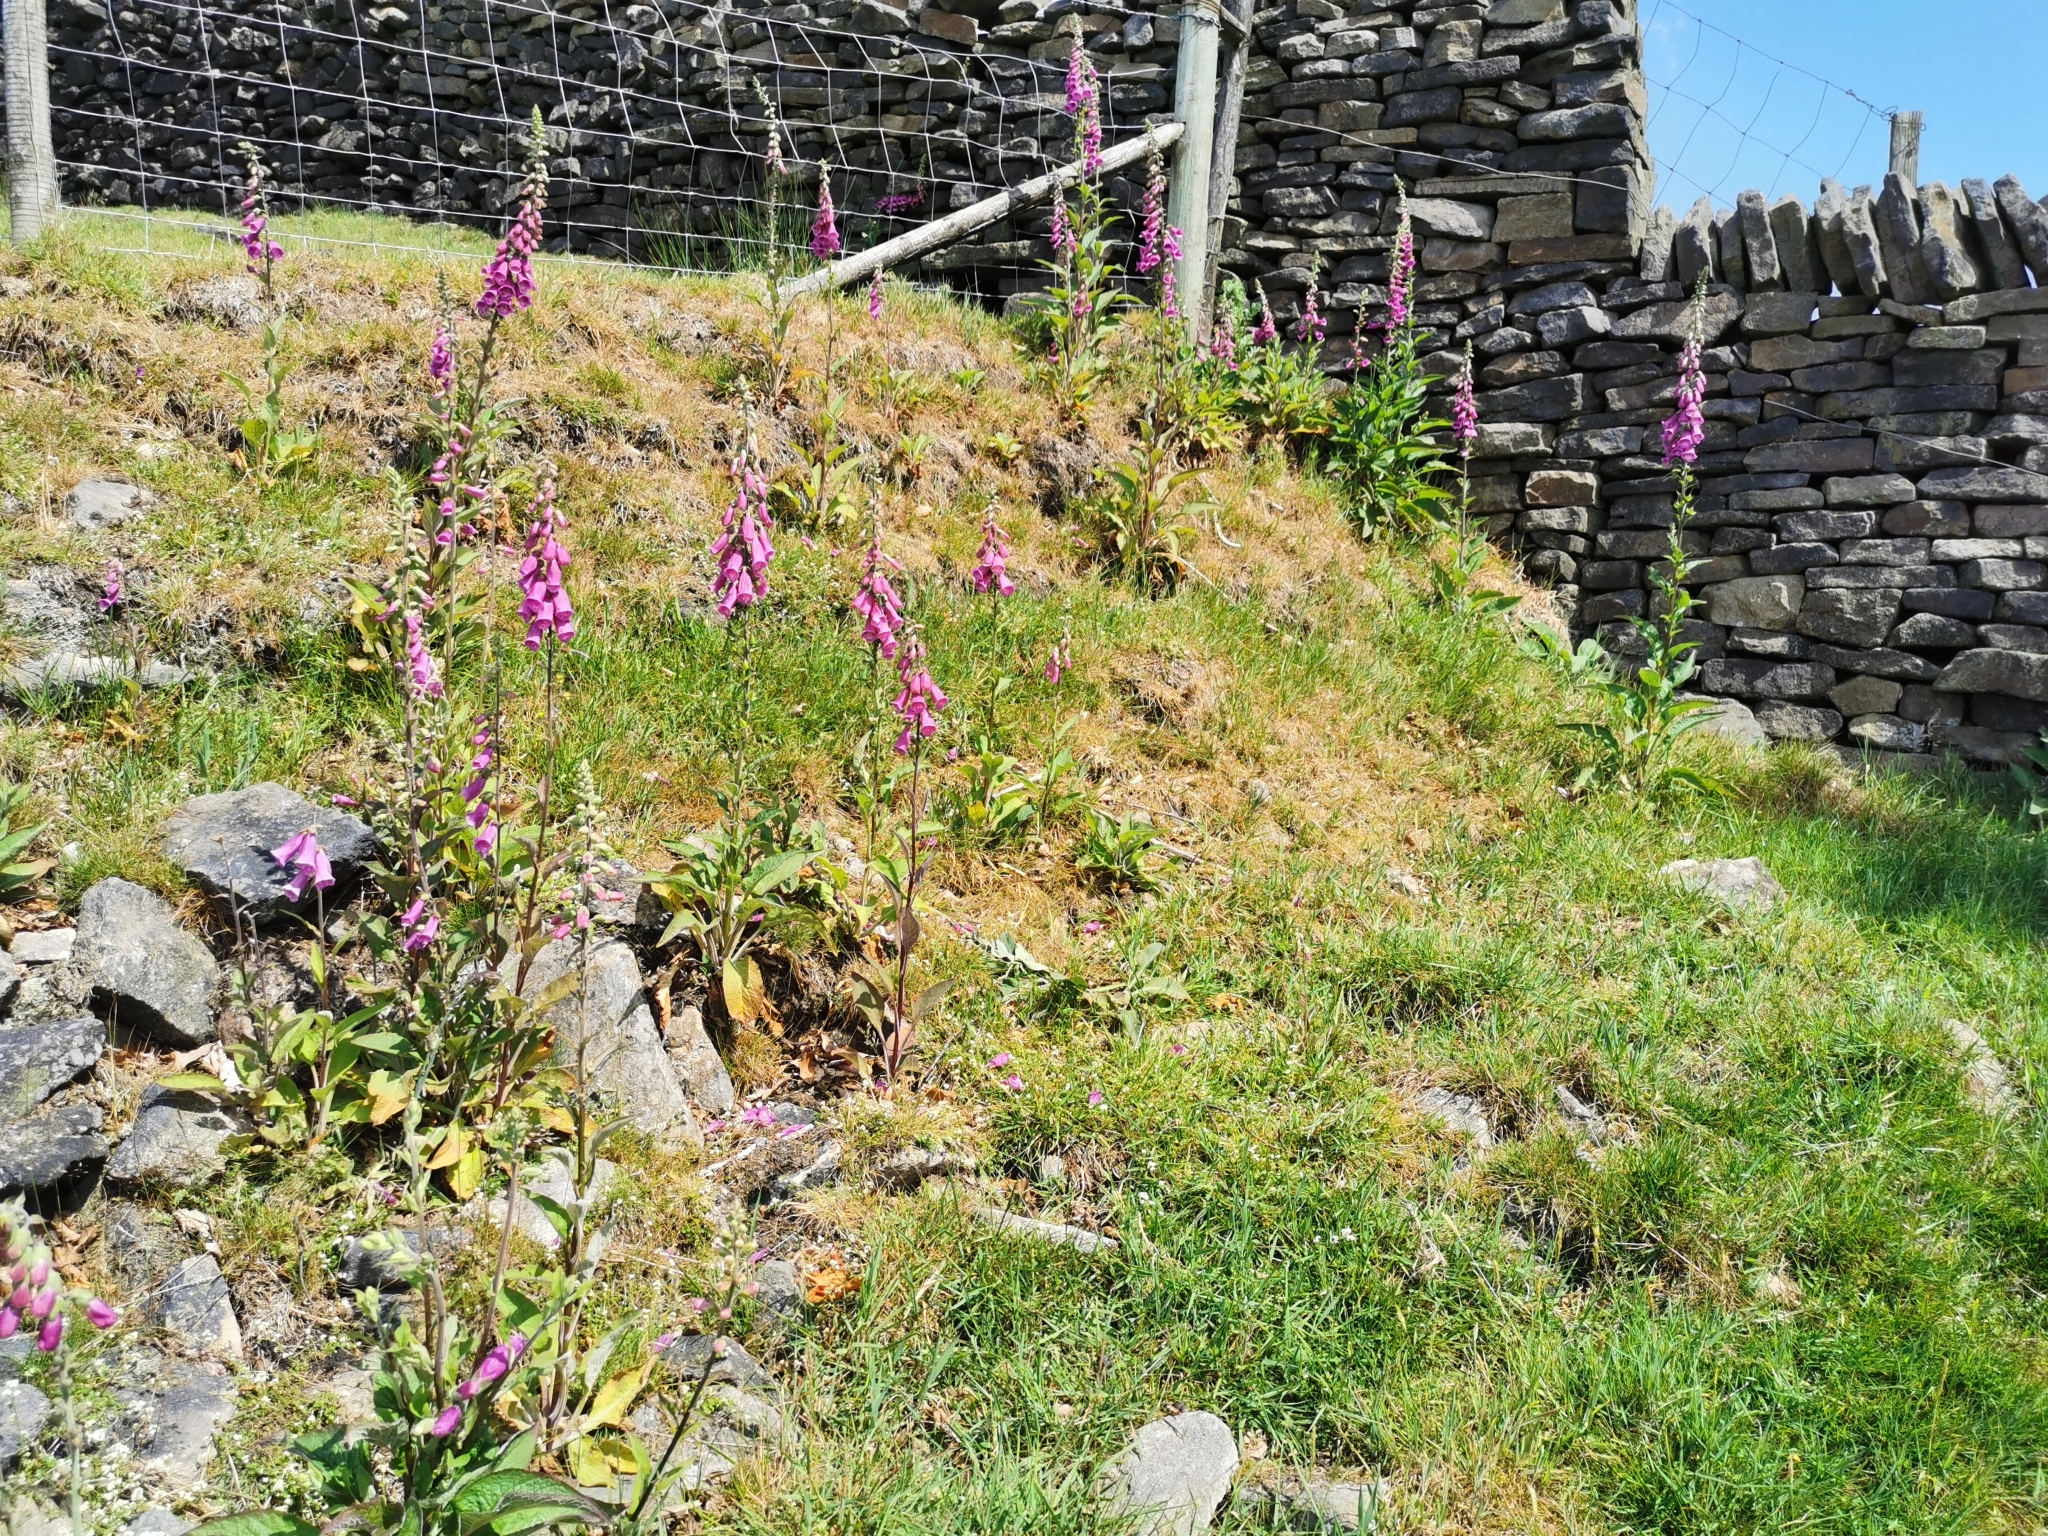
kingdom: Plantae
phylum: Tracheophyta
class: Magnoliopsida
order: Lamiales
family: Plantaginaceae
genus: Digitalis
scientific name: Digitalis purpurea
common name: Foxglove
